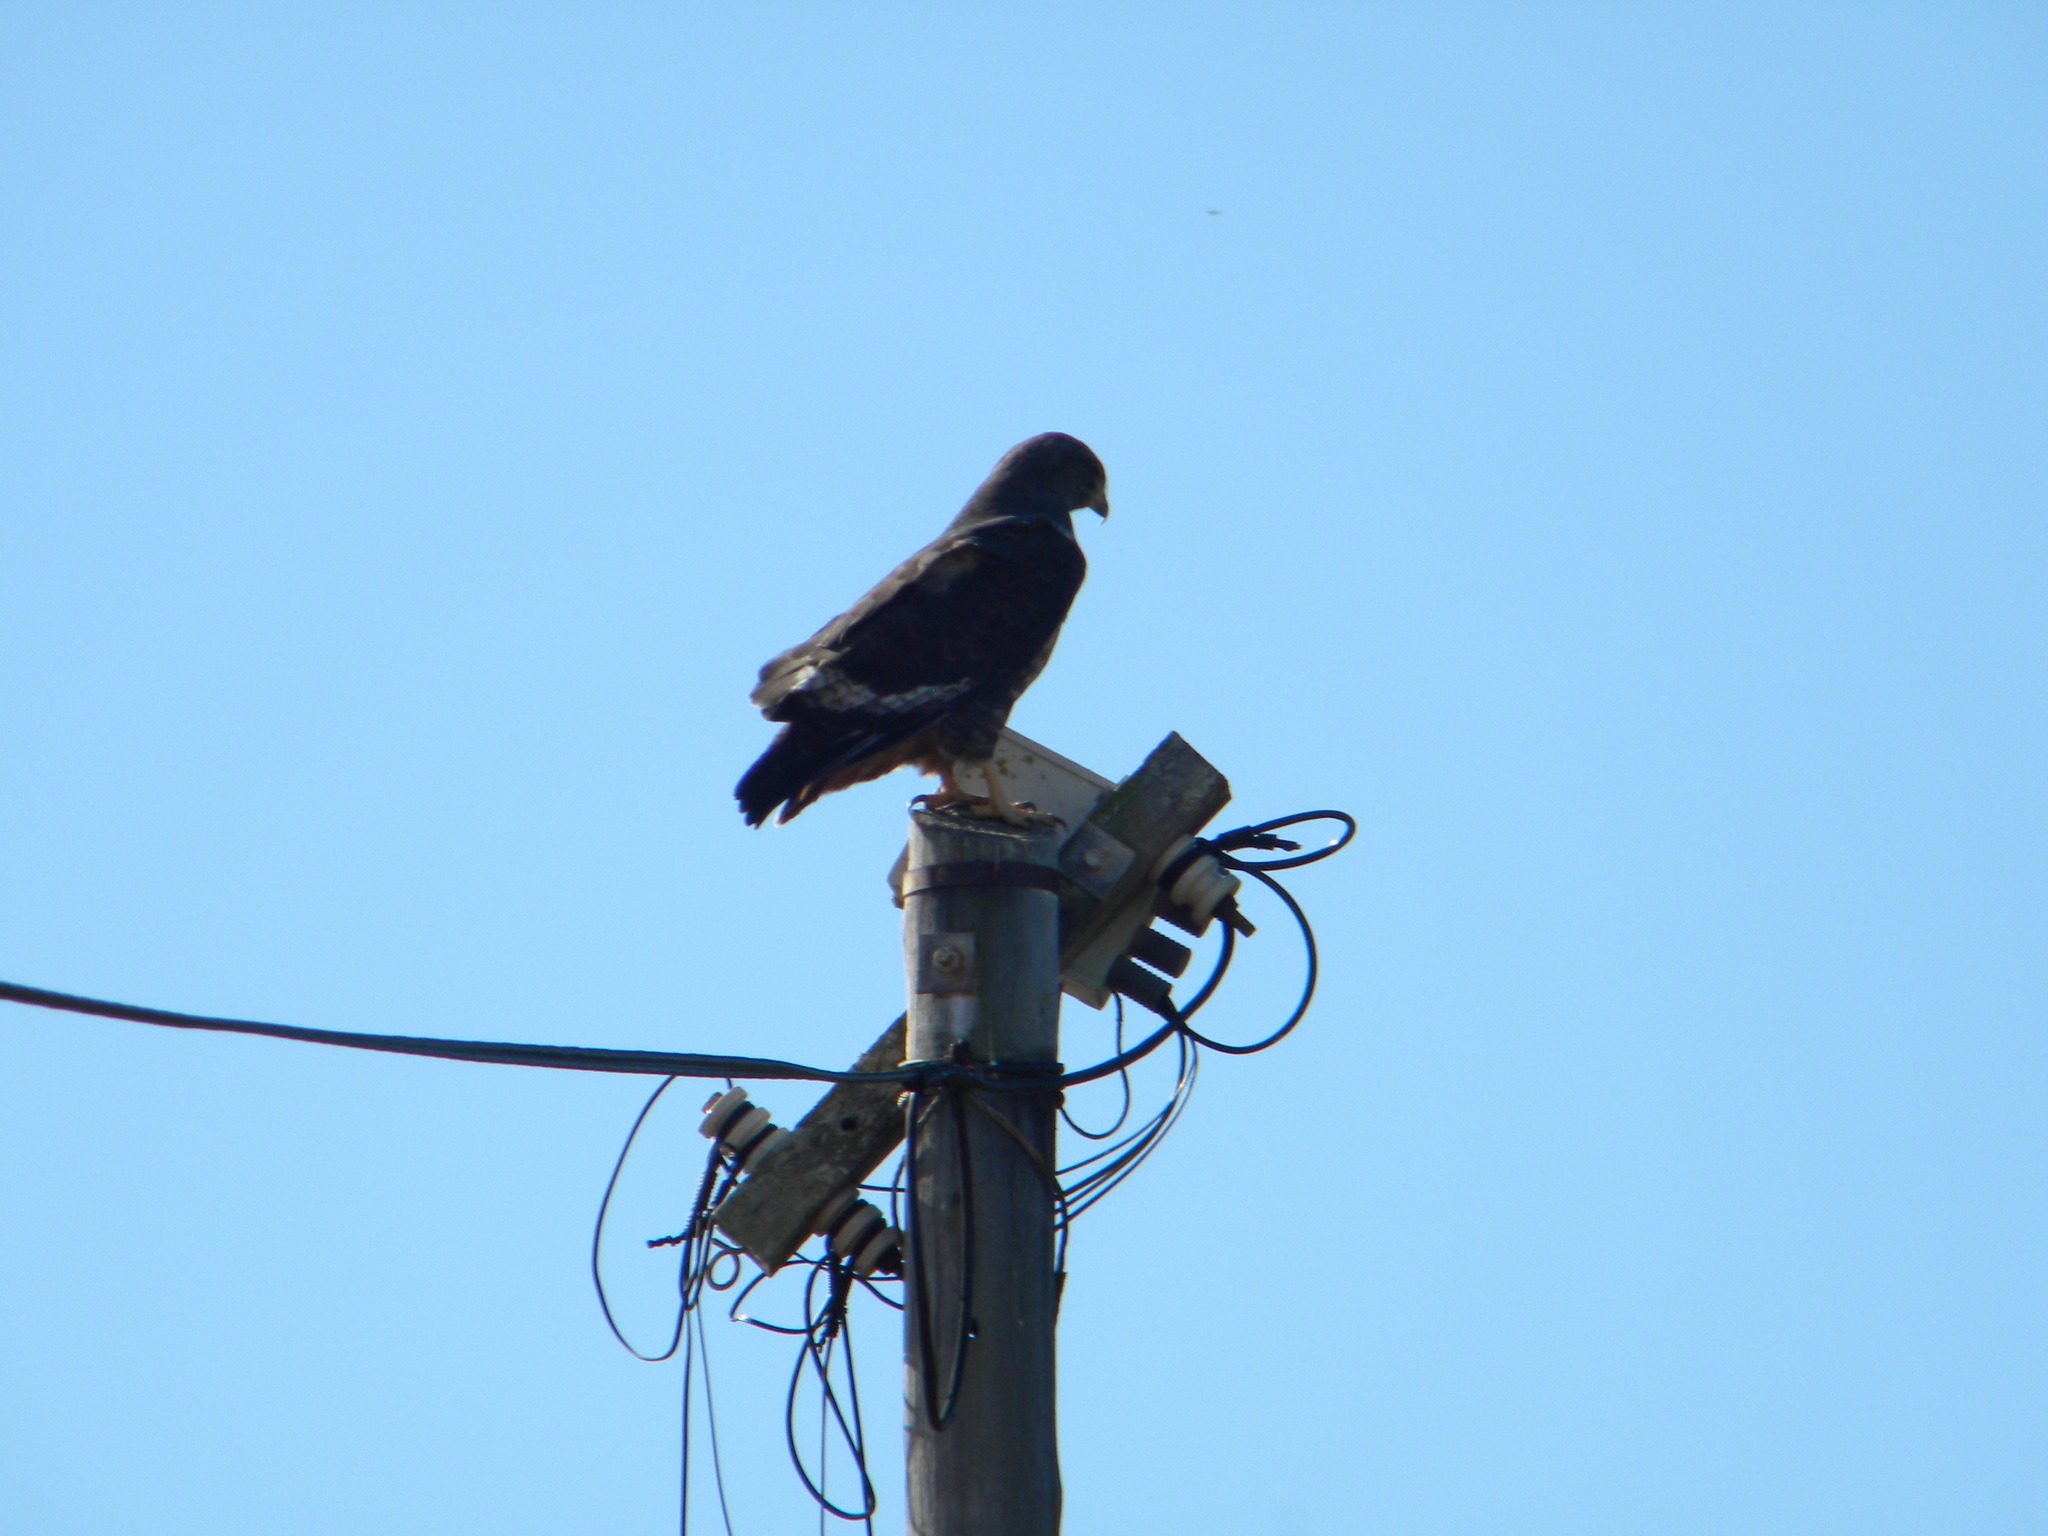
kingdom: Animalia
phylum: Chordata
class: Aves
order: Accipitriformes
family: Accipitridae
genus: Buteo
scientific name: Buteo rufofuscus
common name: Jackal buzzard
